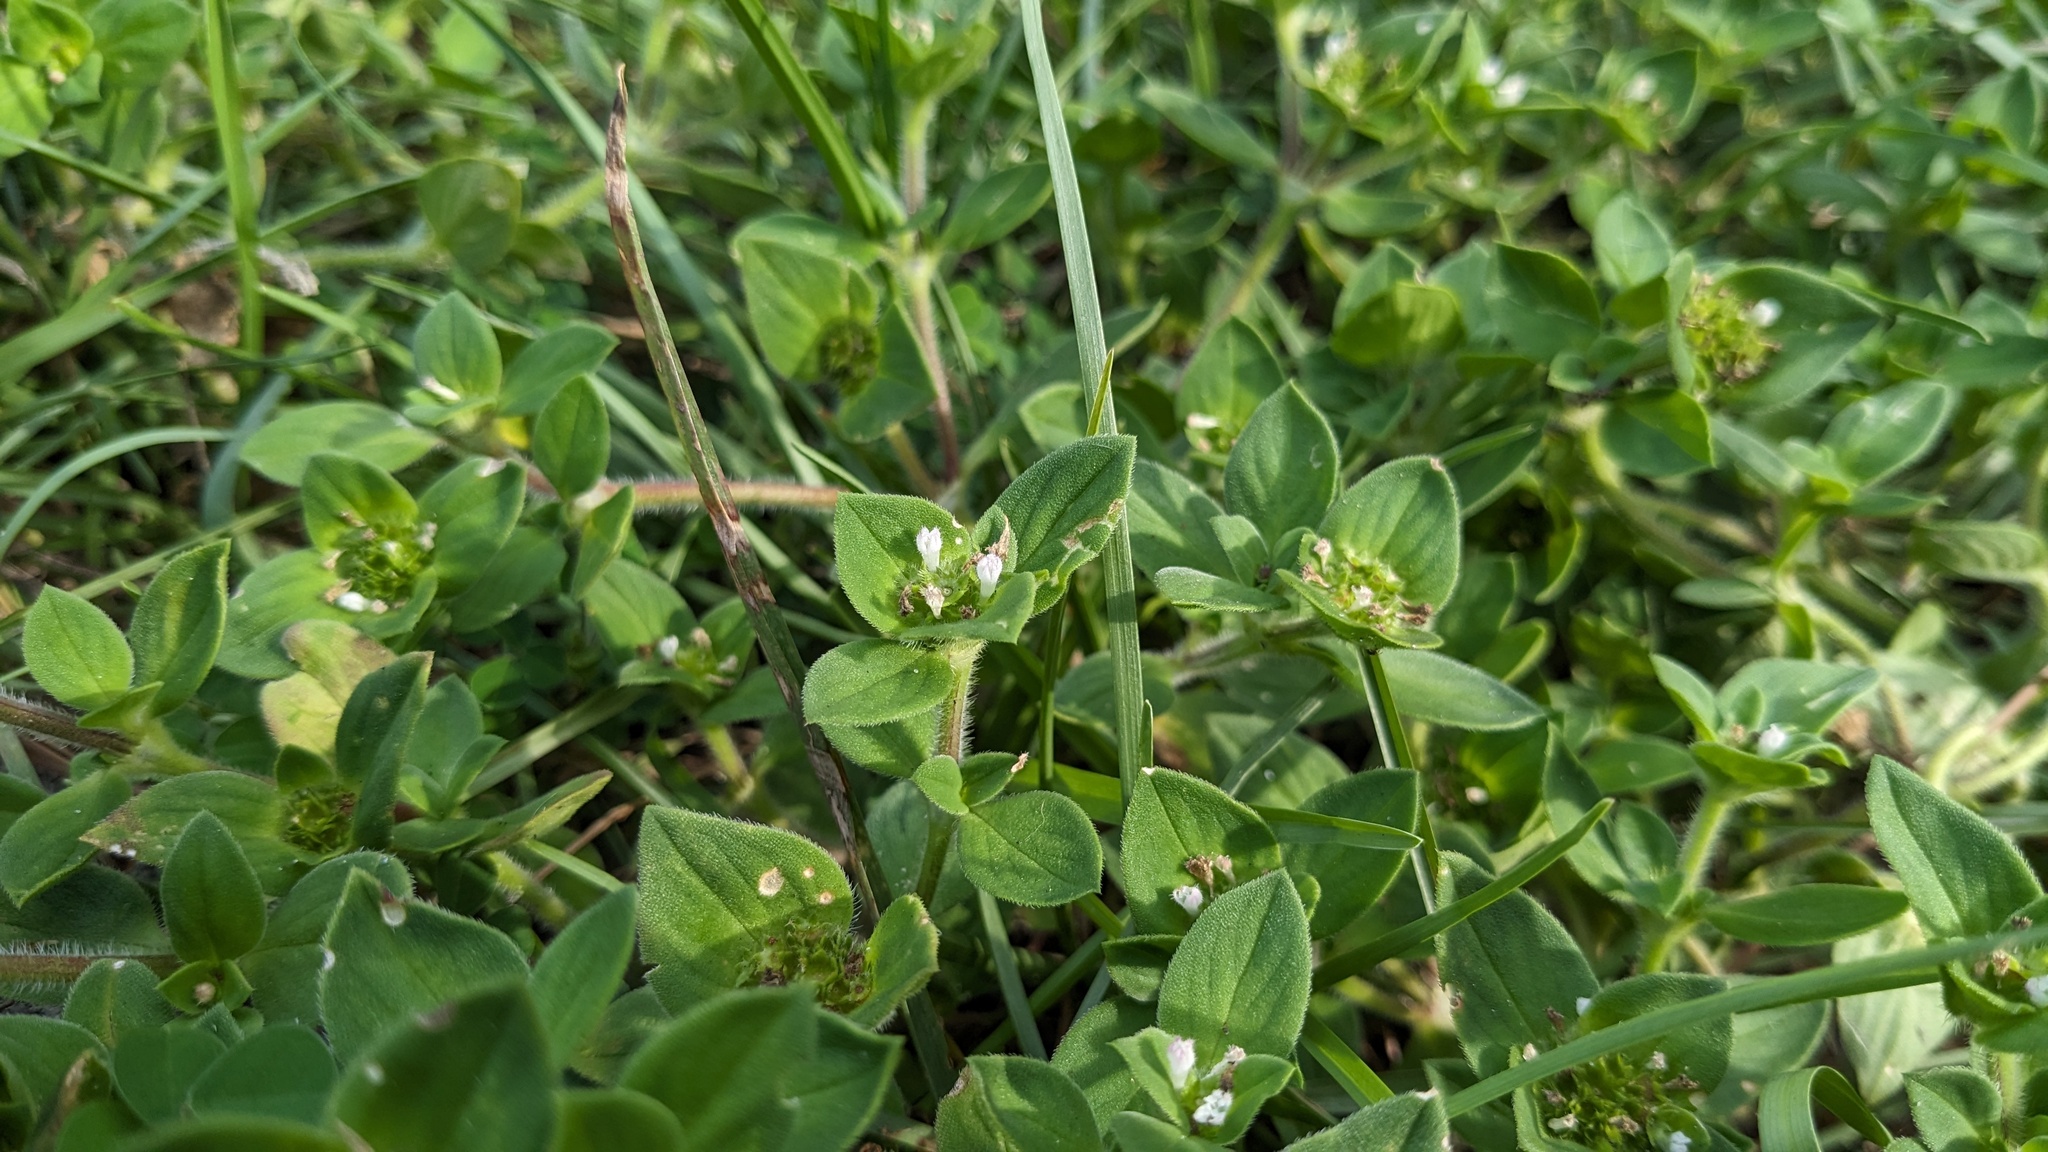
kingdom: Plantae
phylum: Tracheophyta
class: Magnoliopsida
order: Gentianales
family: Rubiaceae
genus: Richardia
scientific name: Richardia brasiliensis
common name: Tropical mexican clover
